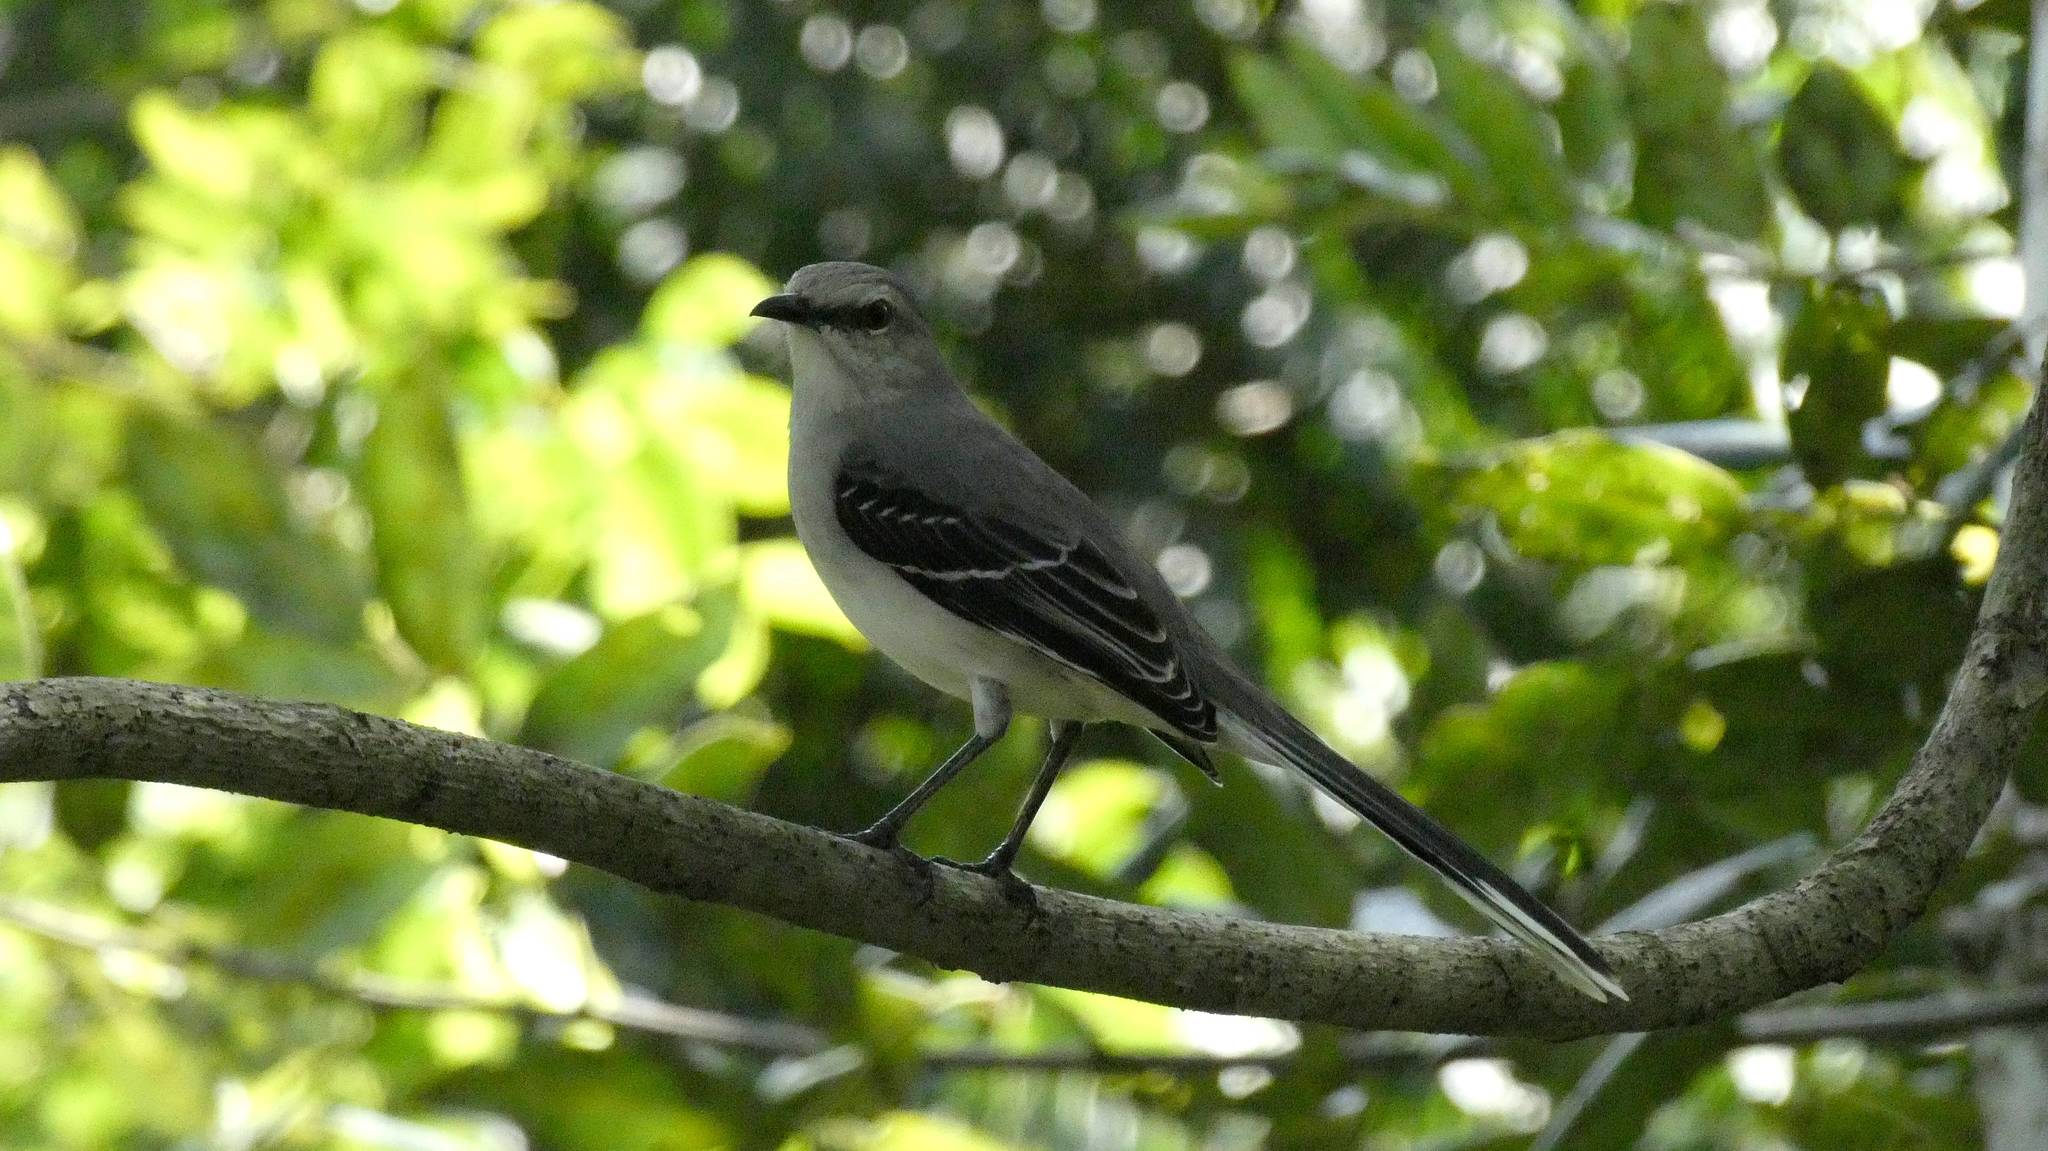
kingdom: Animalia
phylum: Chordata
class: Aves
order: Passeriformes
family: Mimidae
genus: Mimus
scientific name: Mimus gilvus
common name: Tropical mockingbird
